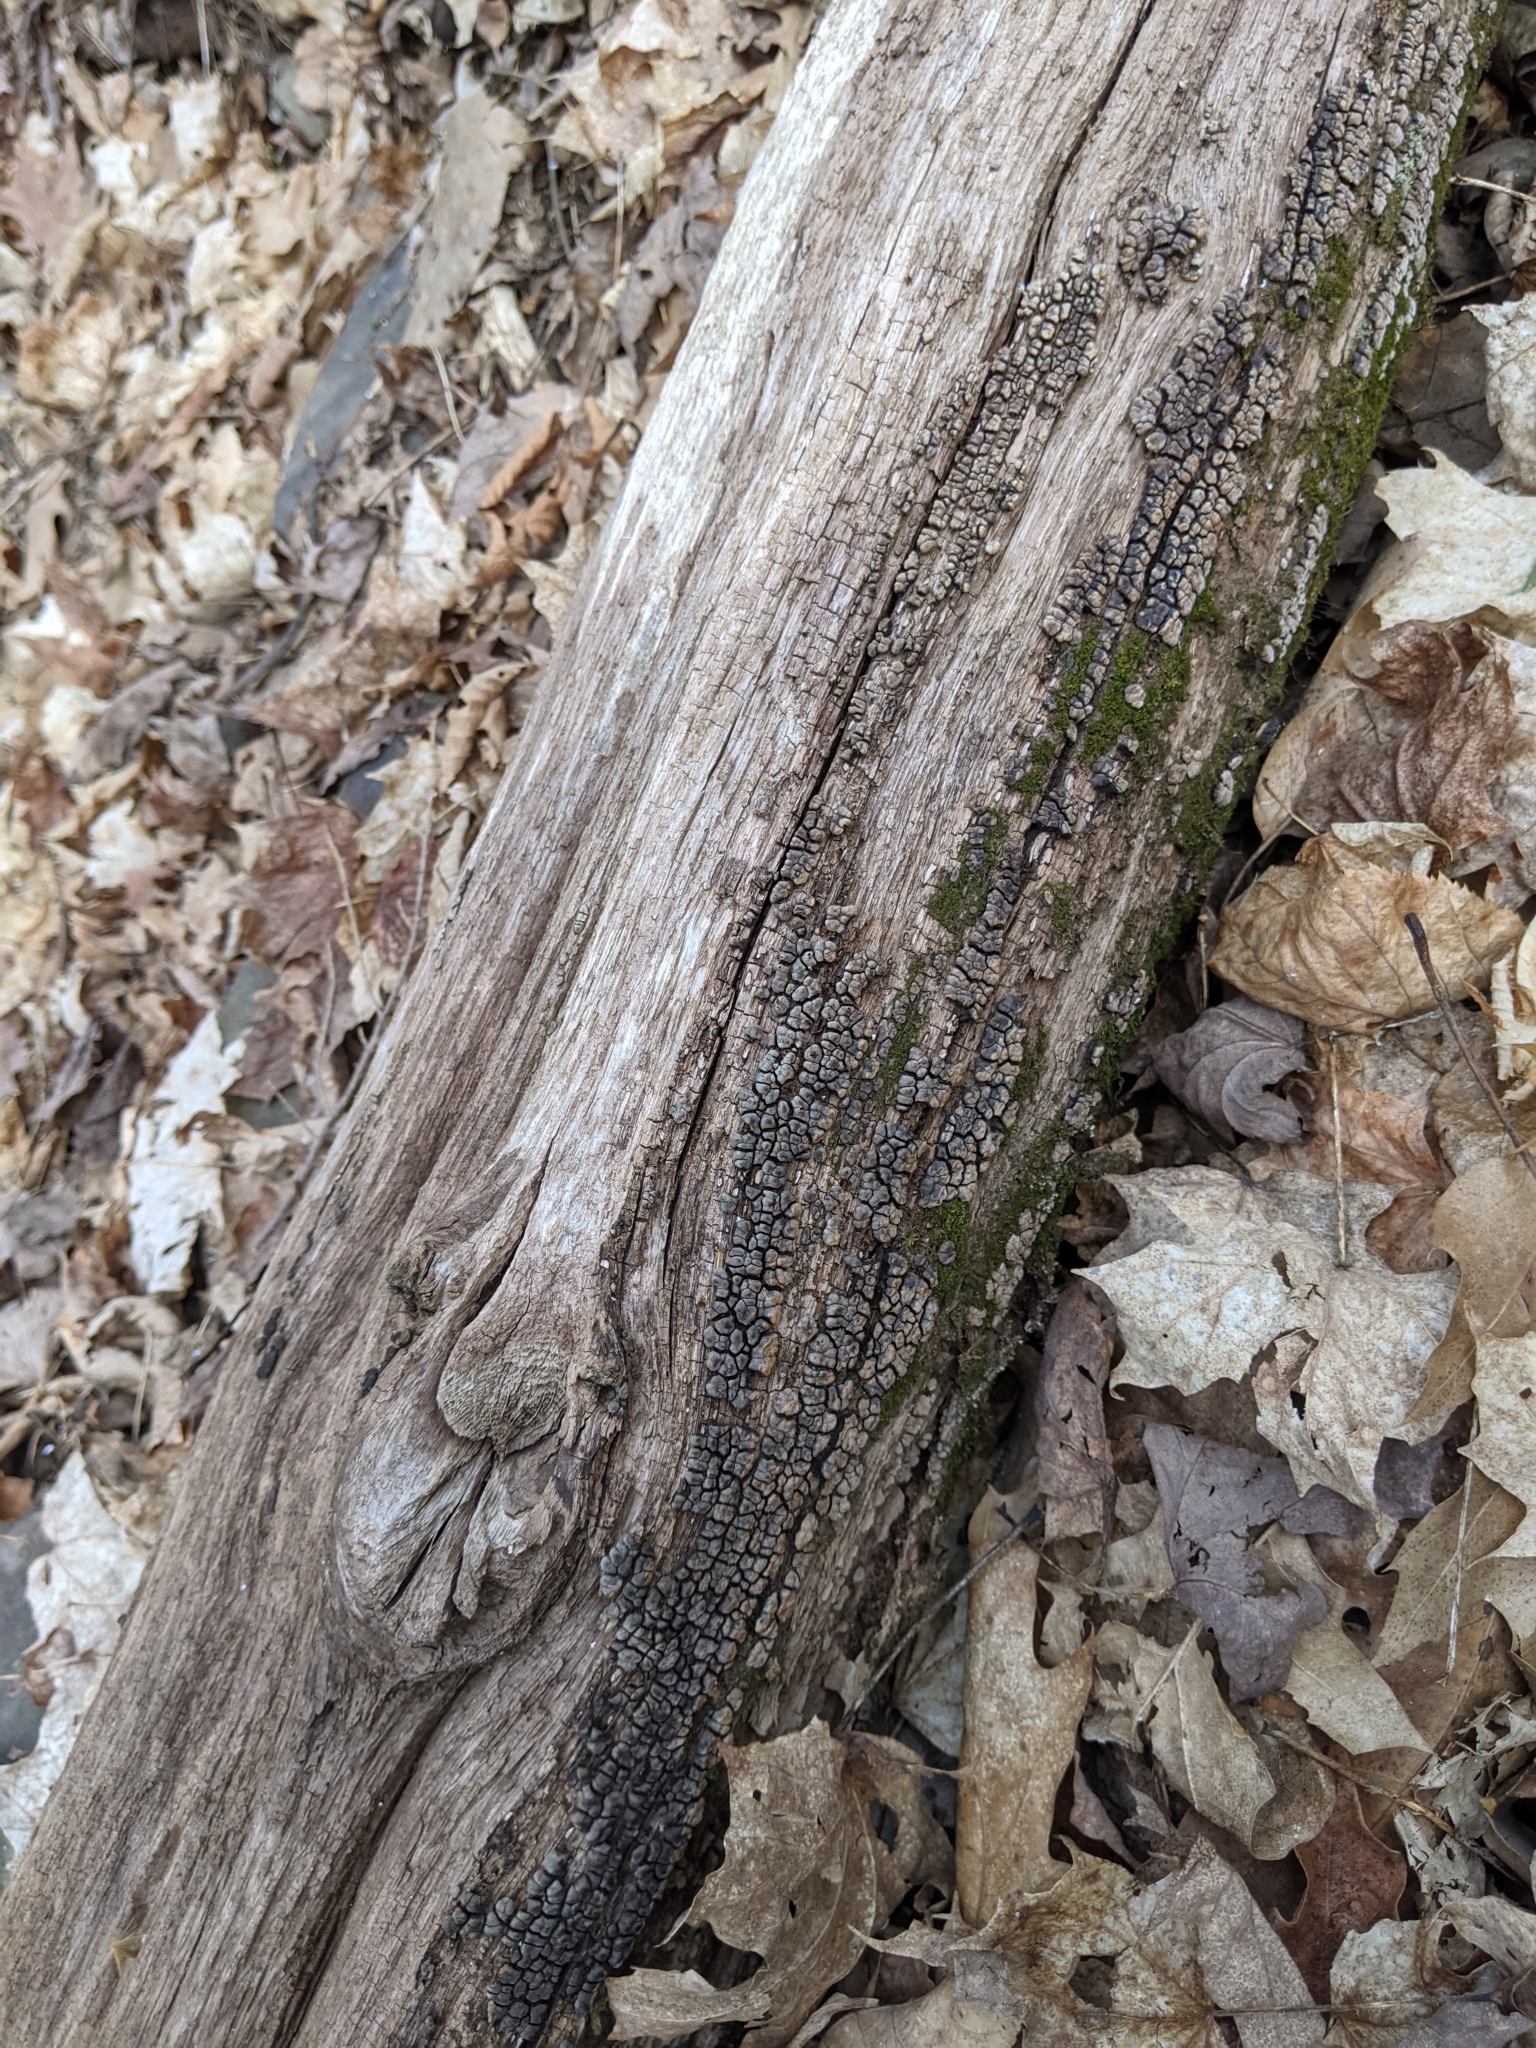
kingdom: Fungi
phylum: Basidiomycota
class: Agaricomycetes
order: Russulales
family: Stereaceae
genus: Xylobolus
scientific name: Xylobolus frustulatus
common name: Ceramic parchment
